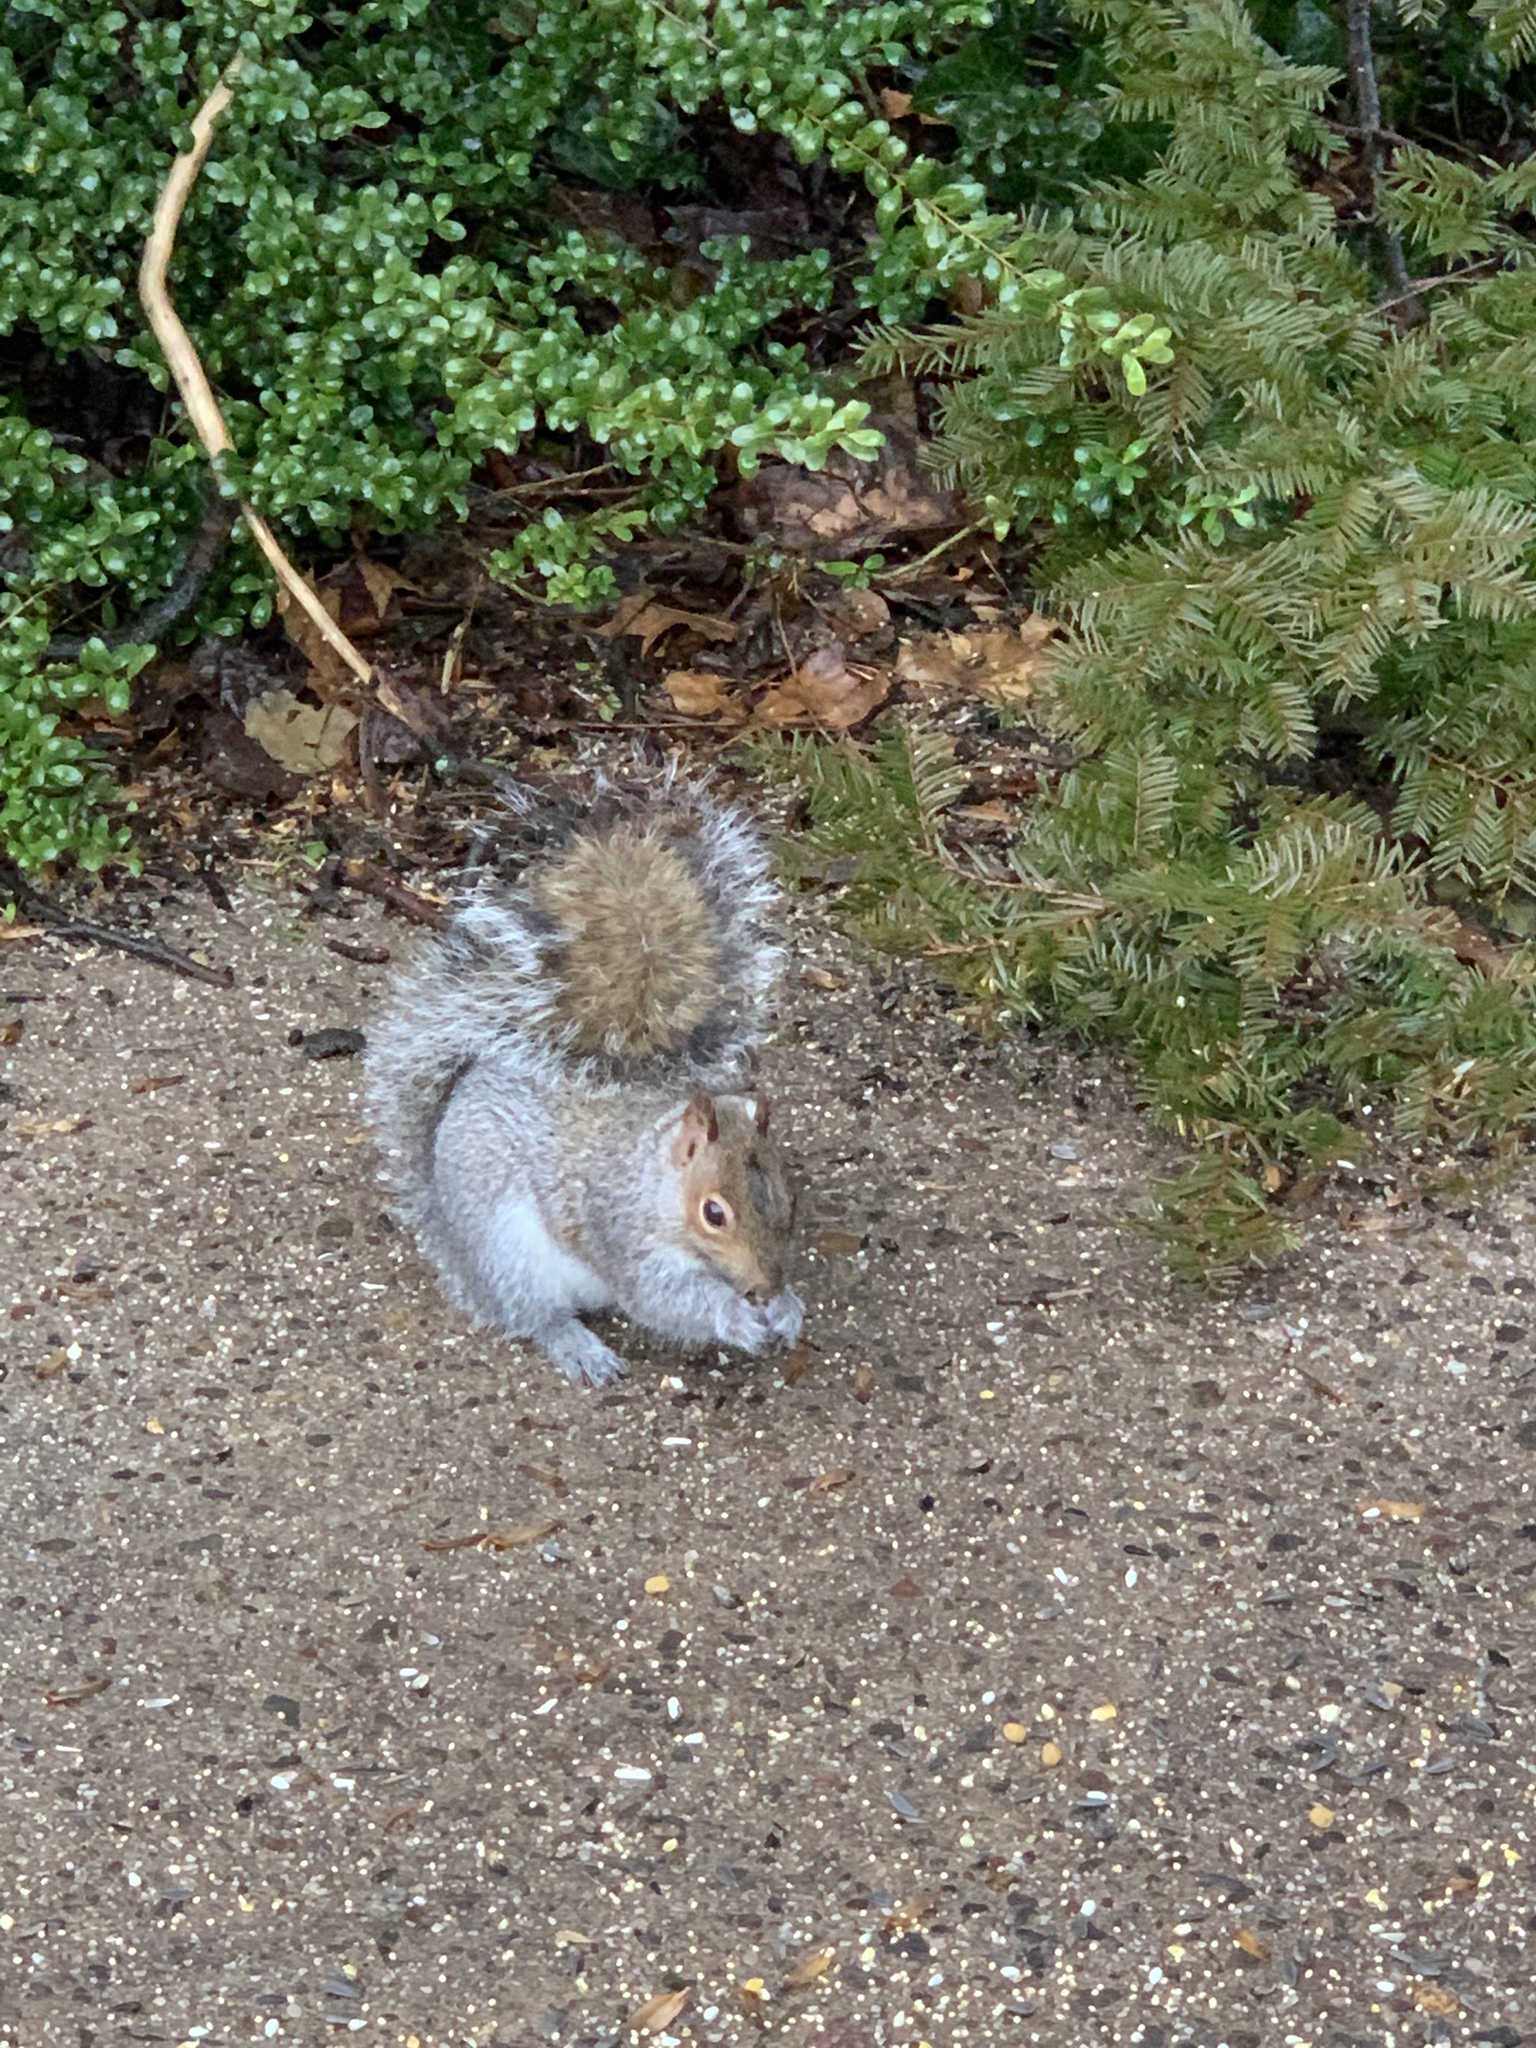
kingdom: Animalia
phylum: Chordata
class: Mammalia
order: Rodentia
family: Sciuridae
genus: Sciurus
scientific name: Sciurus carolinensis
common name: Eastern gray squirrel
